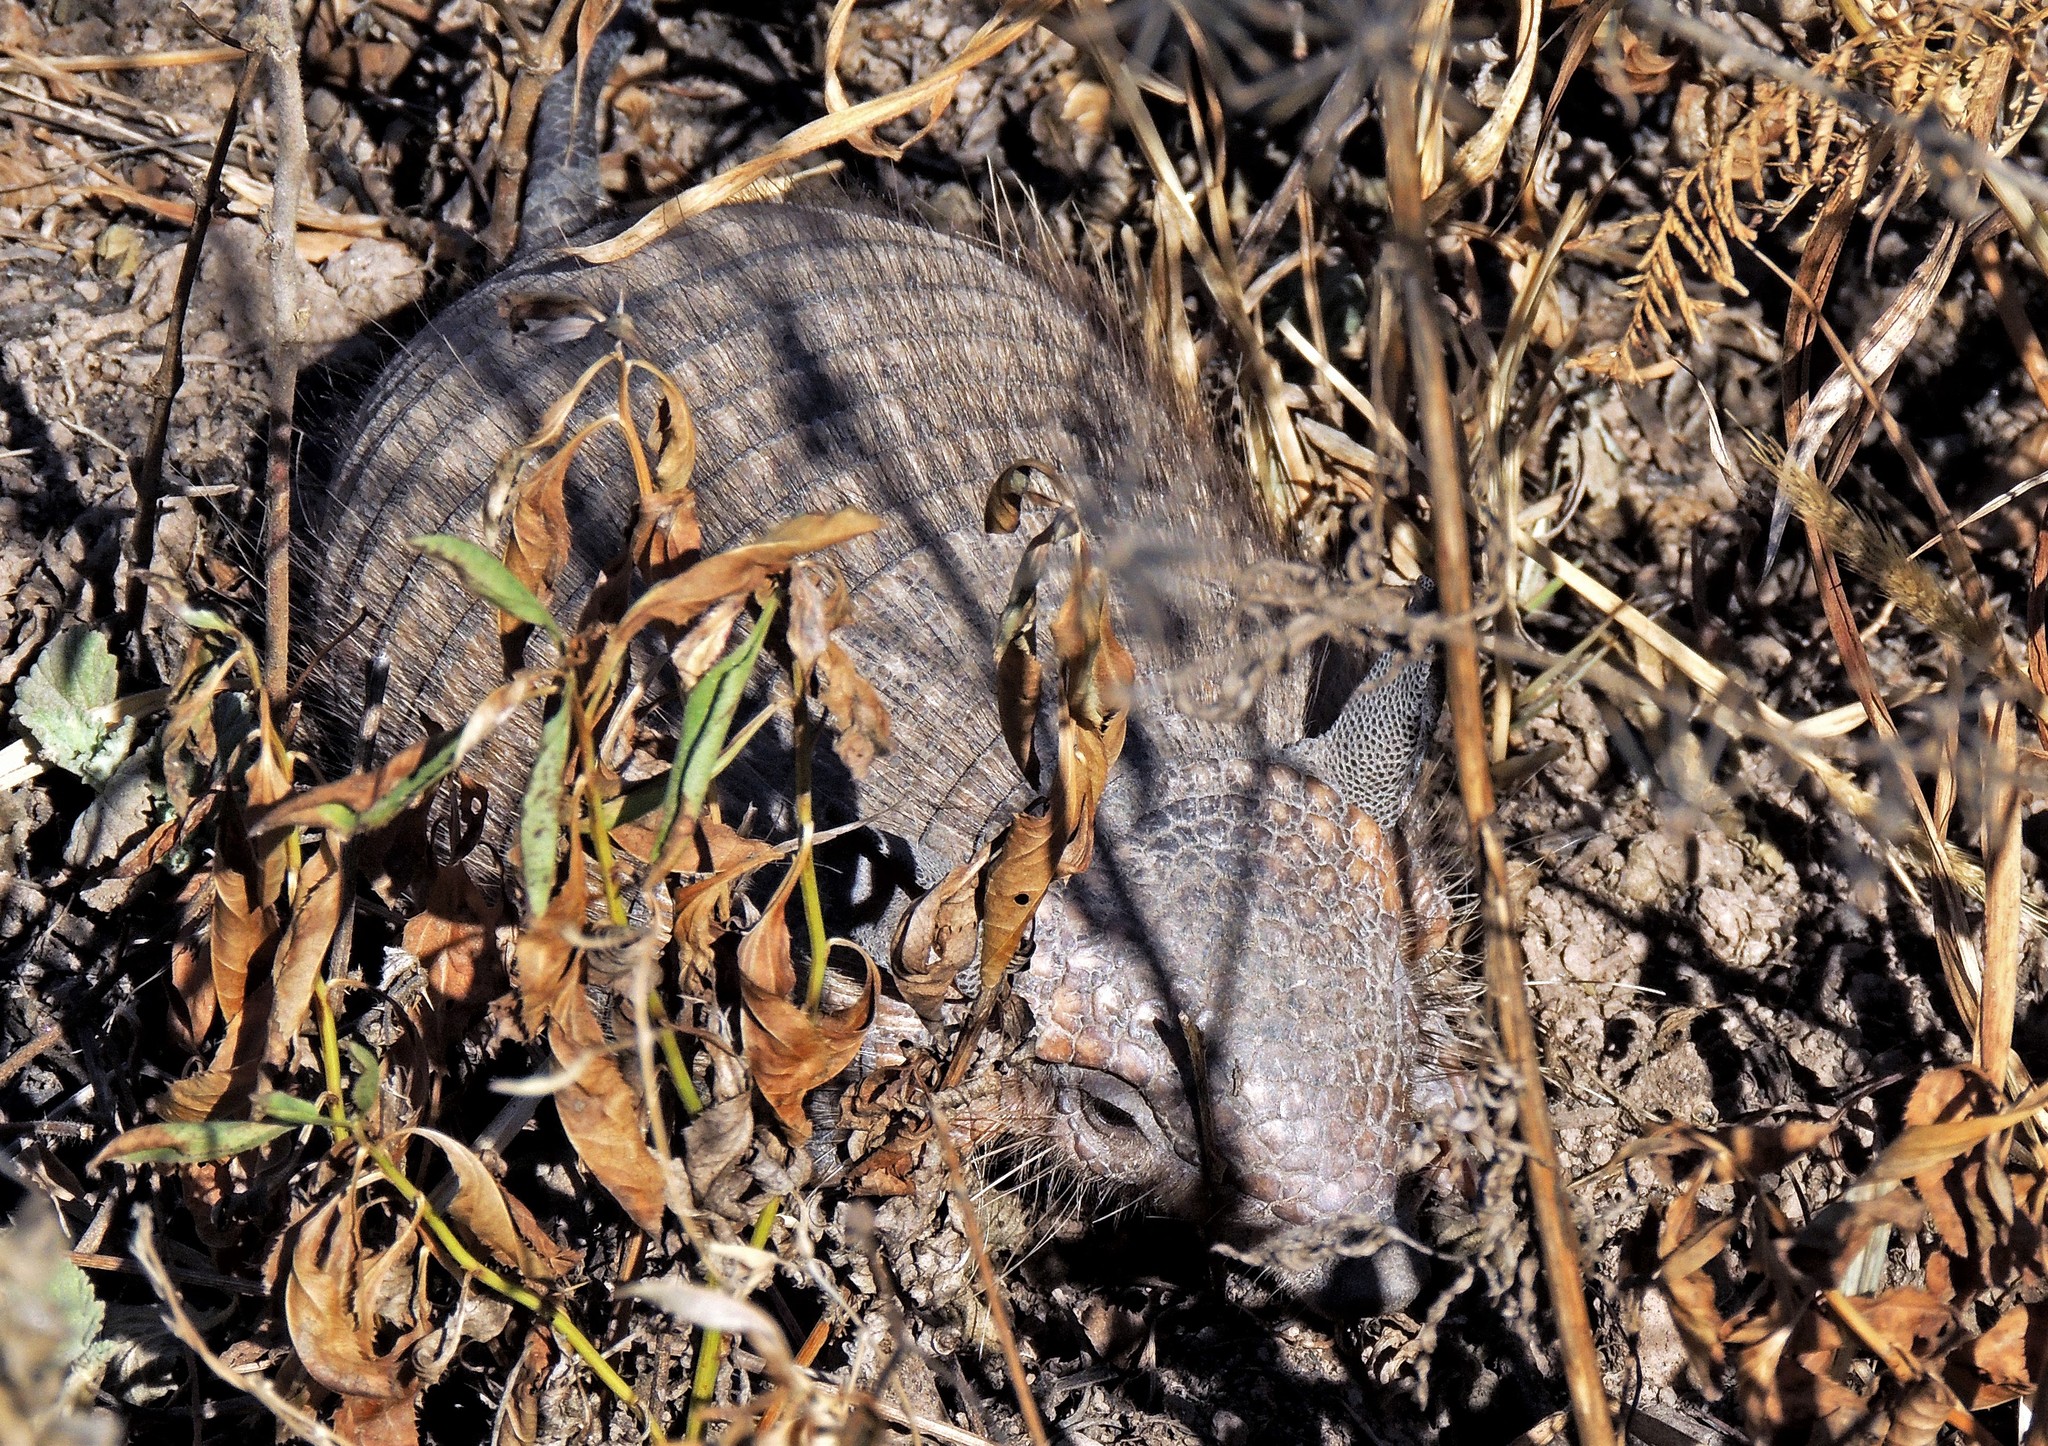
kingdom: Animalia
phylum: Chordata
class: Mammalia
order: Cingulata
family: Dasypodidae
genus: Chaetophractus
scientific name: Chaetophractus vellerosus
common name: Screaming hairy armadillo
